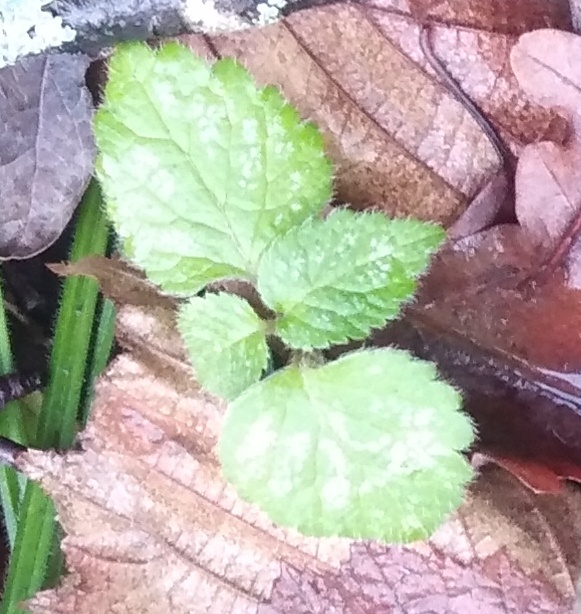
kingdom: Plantae
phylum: Tracheophyta
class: Magnoliopsida
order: Lamiales
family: Lamiaceae
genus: Lamium
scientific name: Lamium galeobdolon
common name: Yellow archangel
